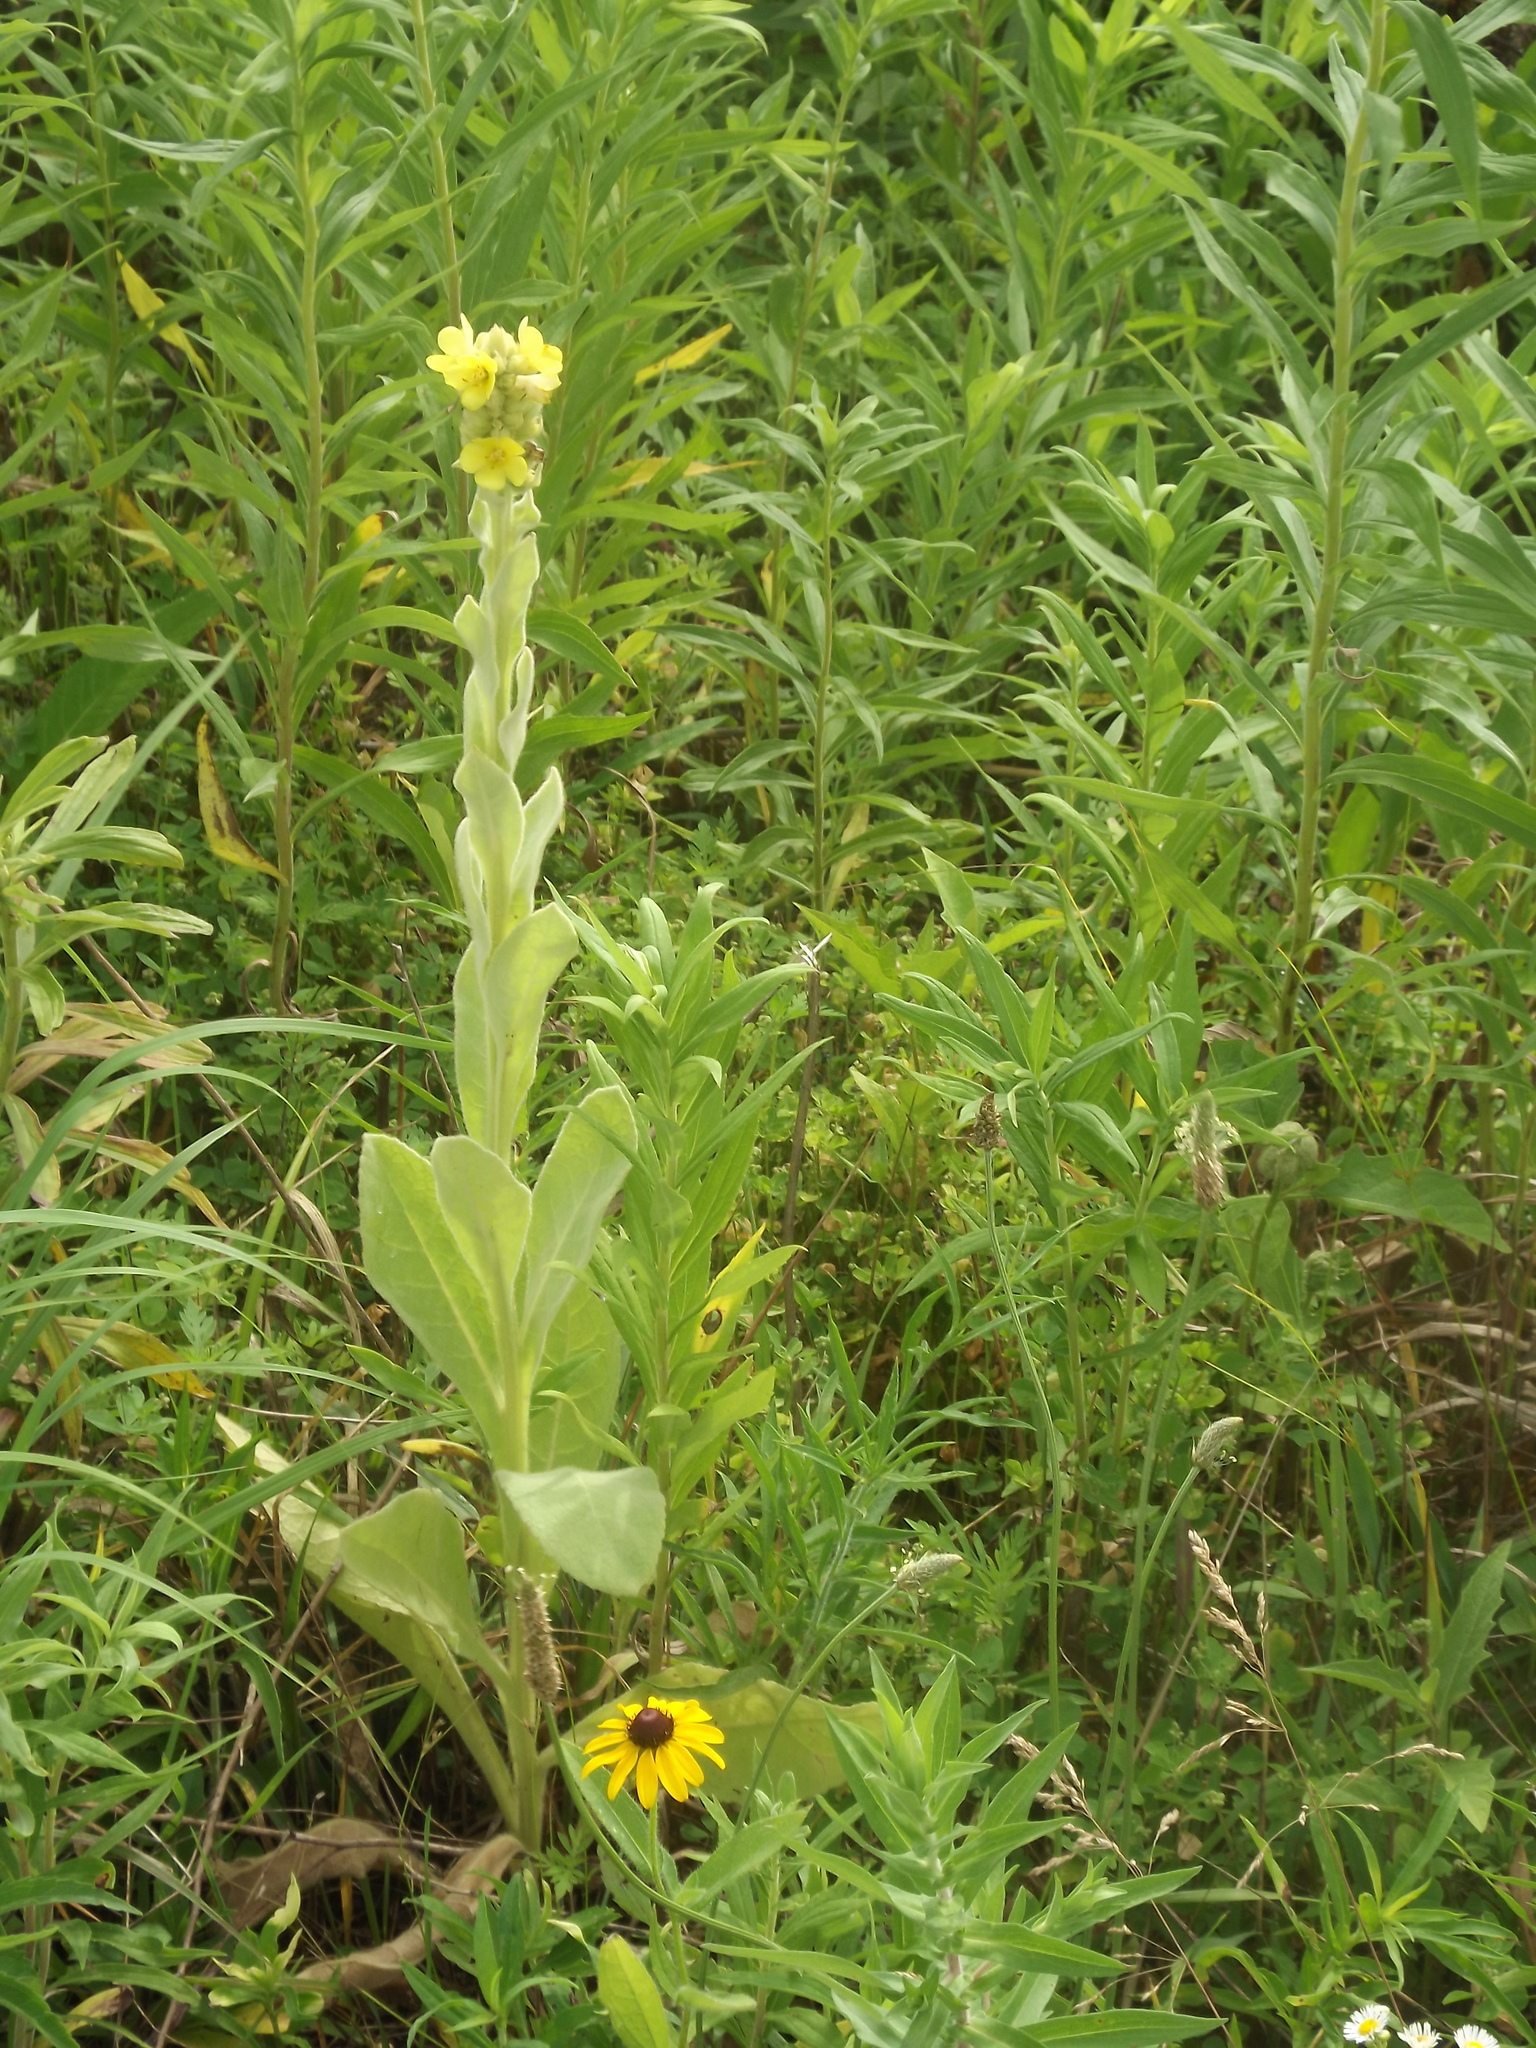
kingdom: Plantae
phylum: Tracheophyta
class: Magnoliopsida
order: Lamiales
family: Scrophulariaceae
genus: Verbascum
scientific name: Verbascum thapsus
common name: Common mullein
